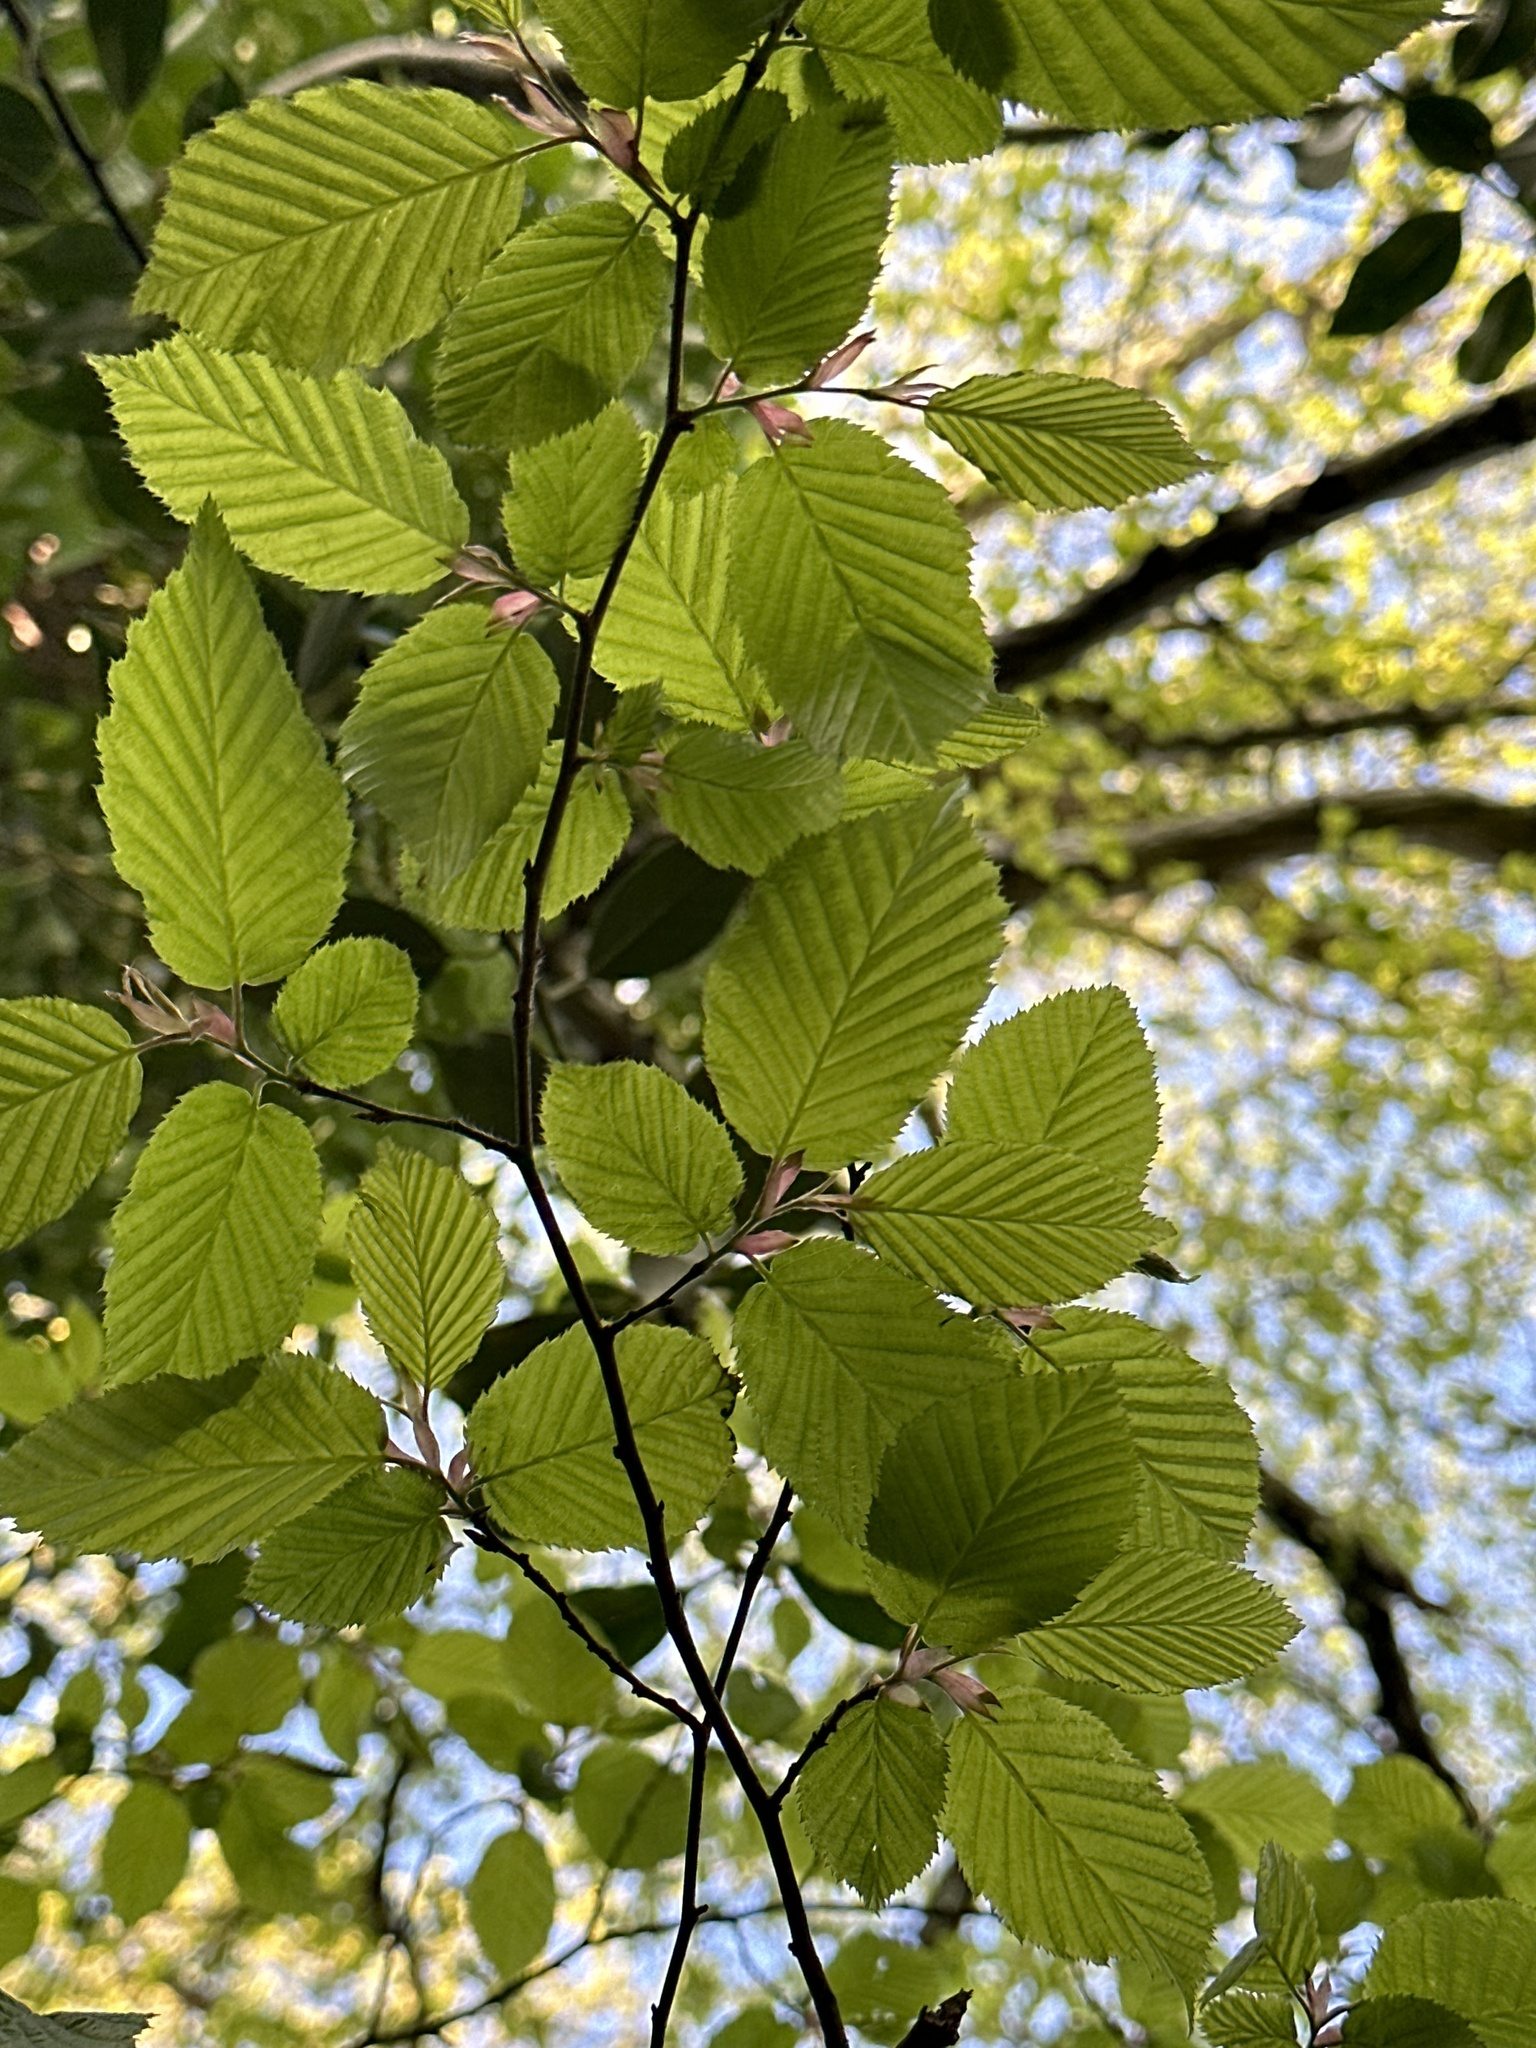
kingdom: Plantae
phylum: Tracheophyta
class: Magnoliopsida
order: Fagales
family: Betulaceae
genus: Carpinus
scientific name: Carpinus betulus
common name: Hornbeam
